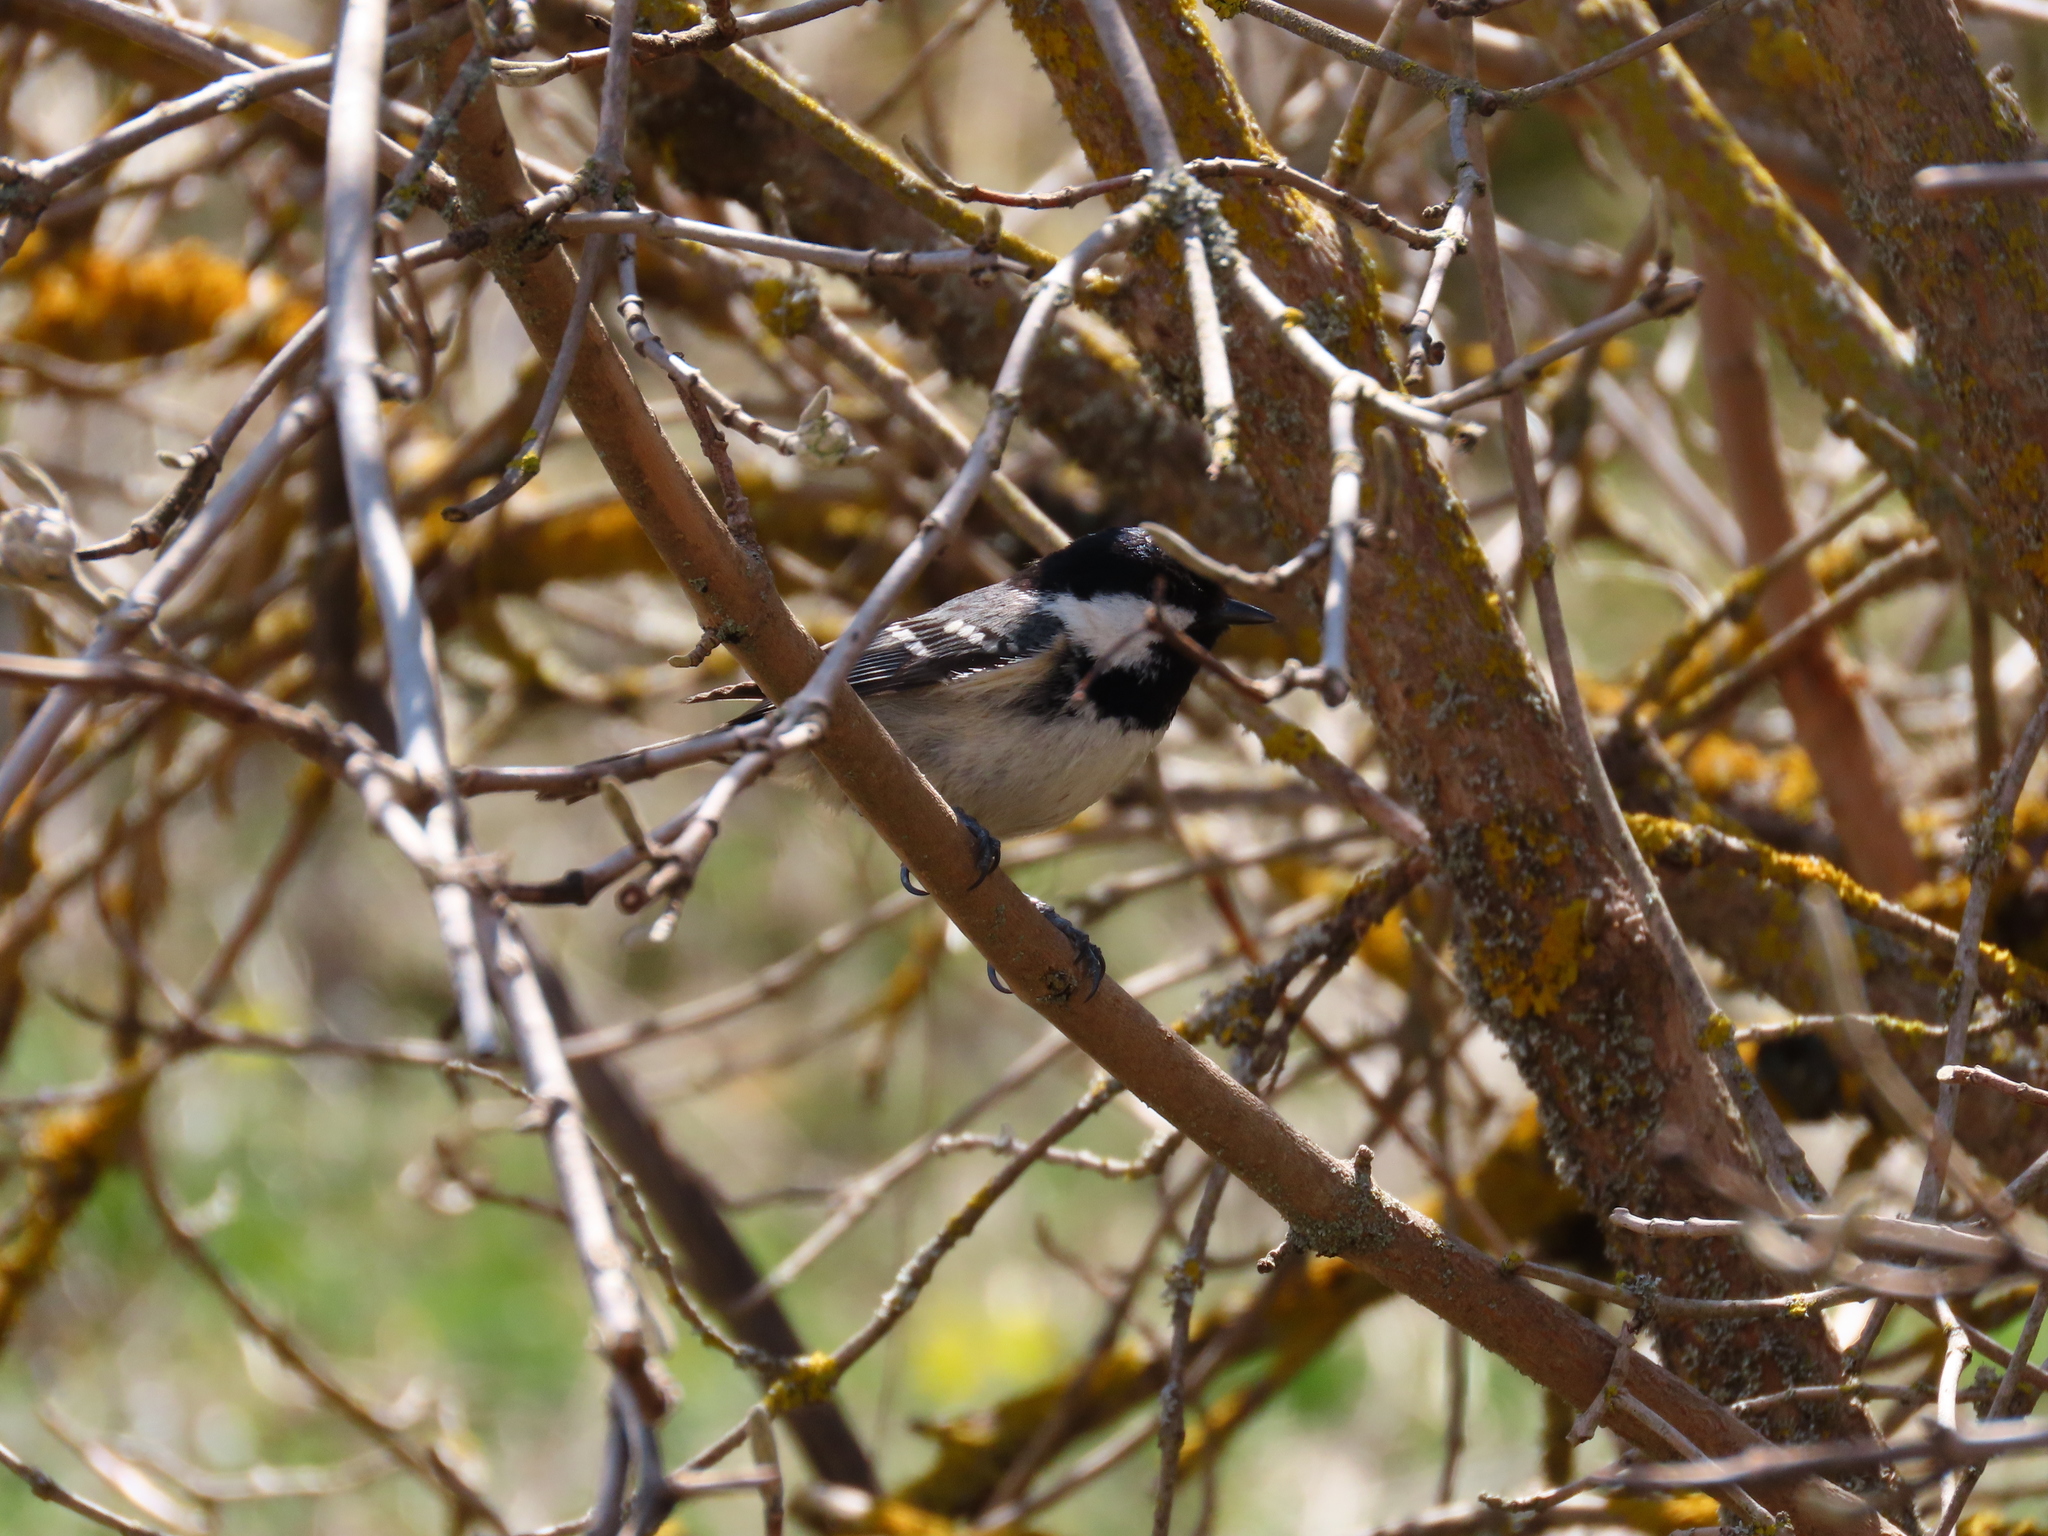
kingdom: Animalia
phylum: Chordata
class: Aves
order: Passeriformes
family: Paridae
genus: Periparus
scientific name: Periparus ater
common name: Coal tit
